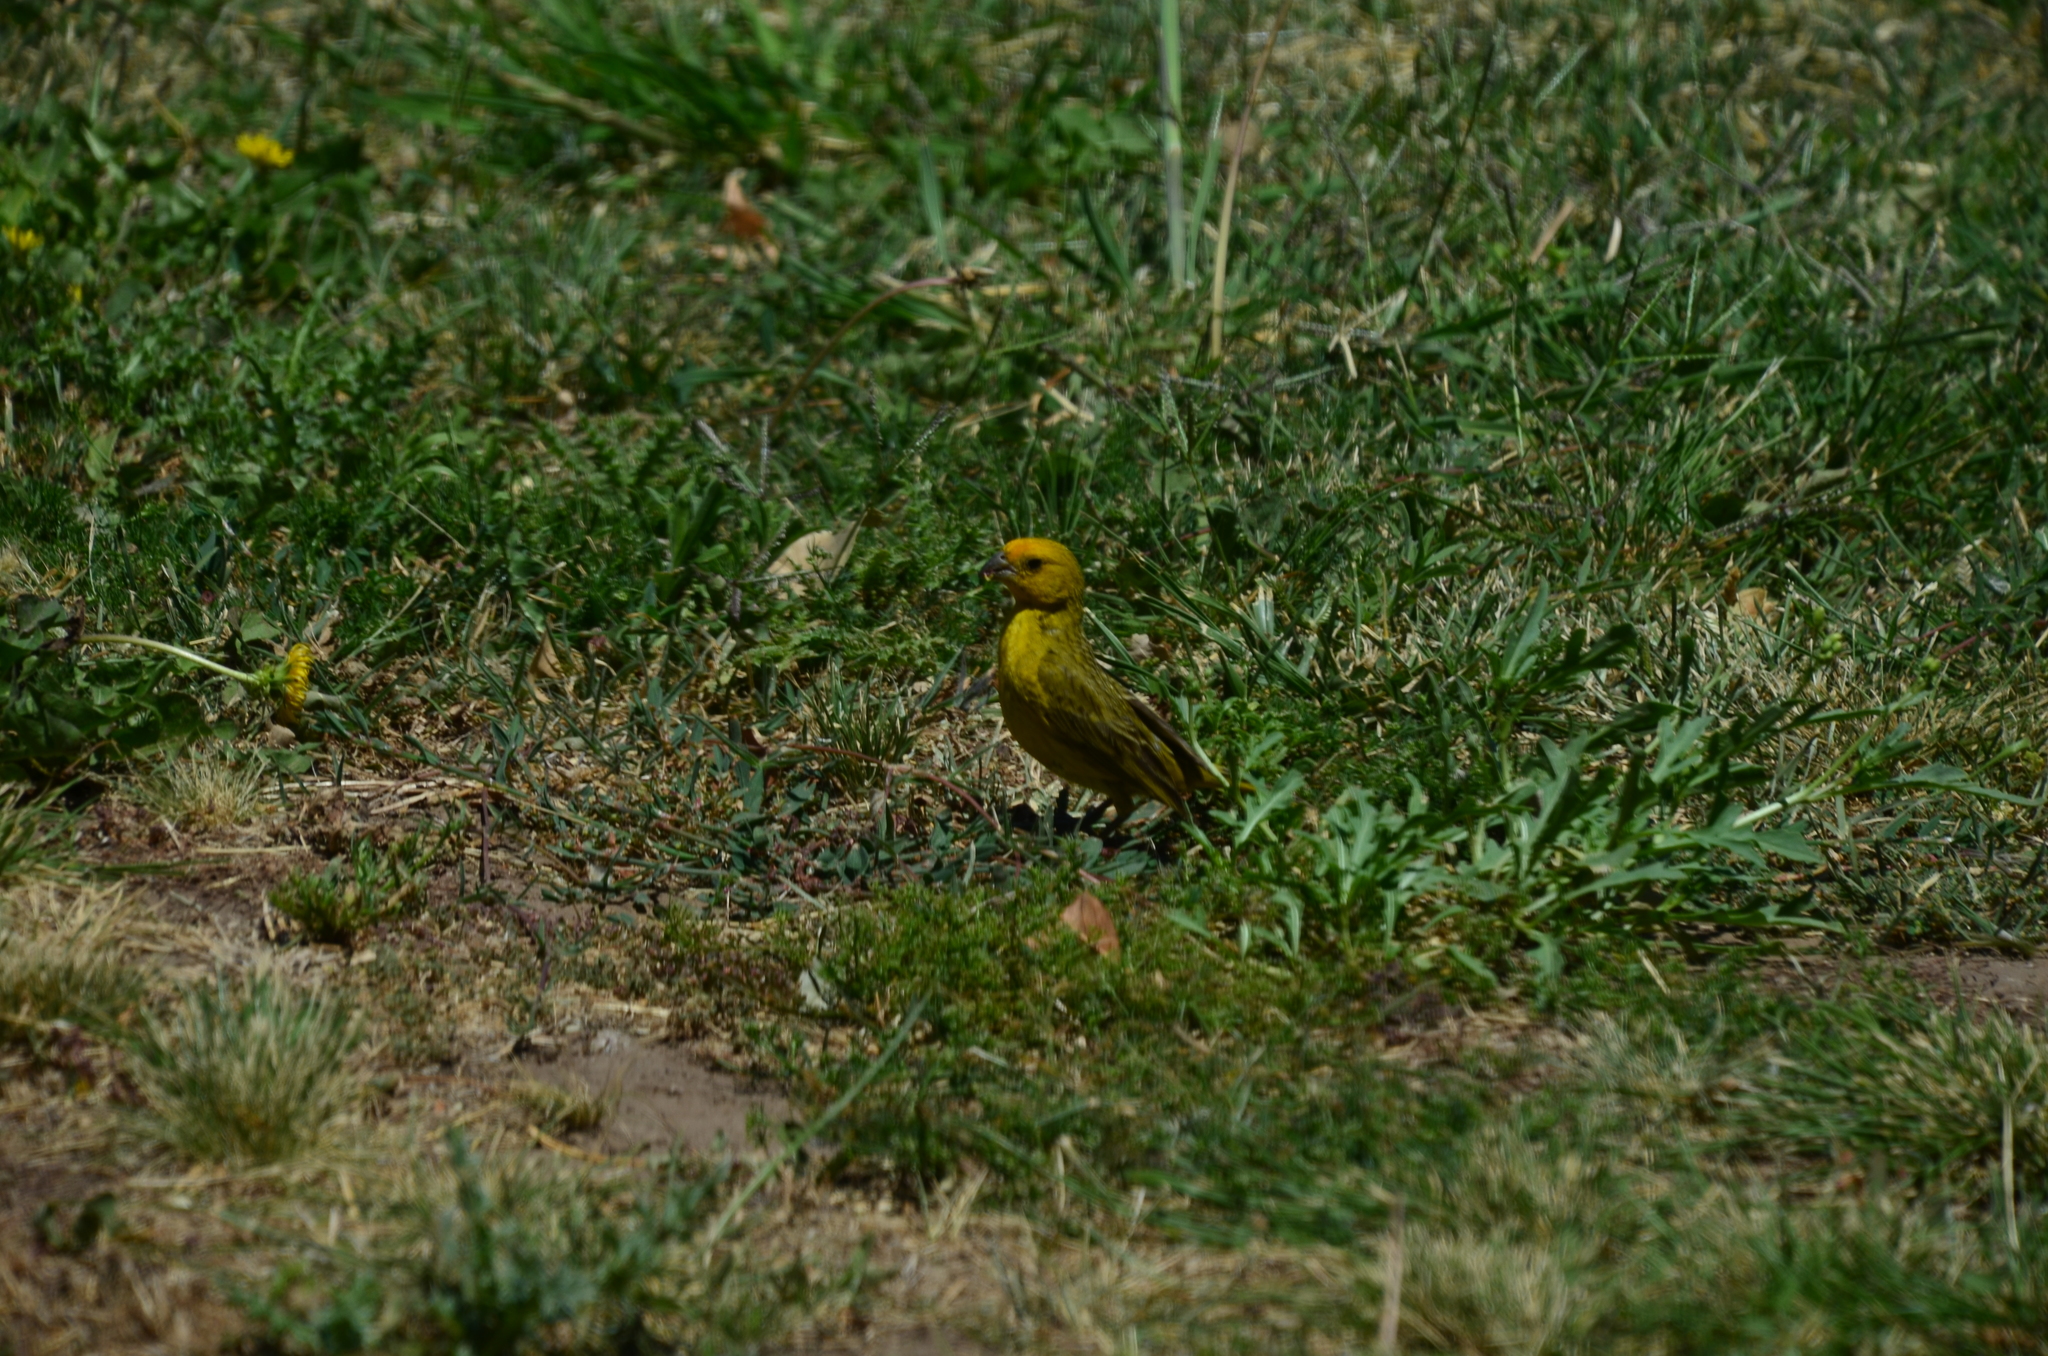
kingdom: Animalia
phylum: Chordata
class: Aves
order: Passeriformes
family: Thraupidae
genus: Sicalis
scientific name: Sicalis flaveola
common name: Saffron finch
